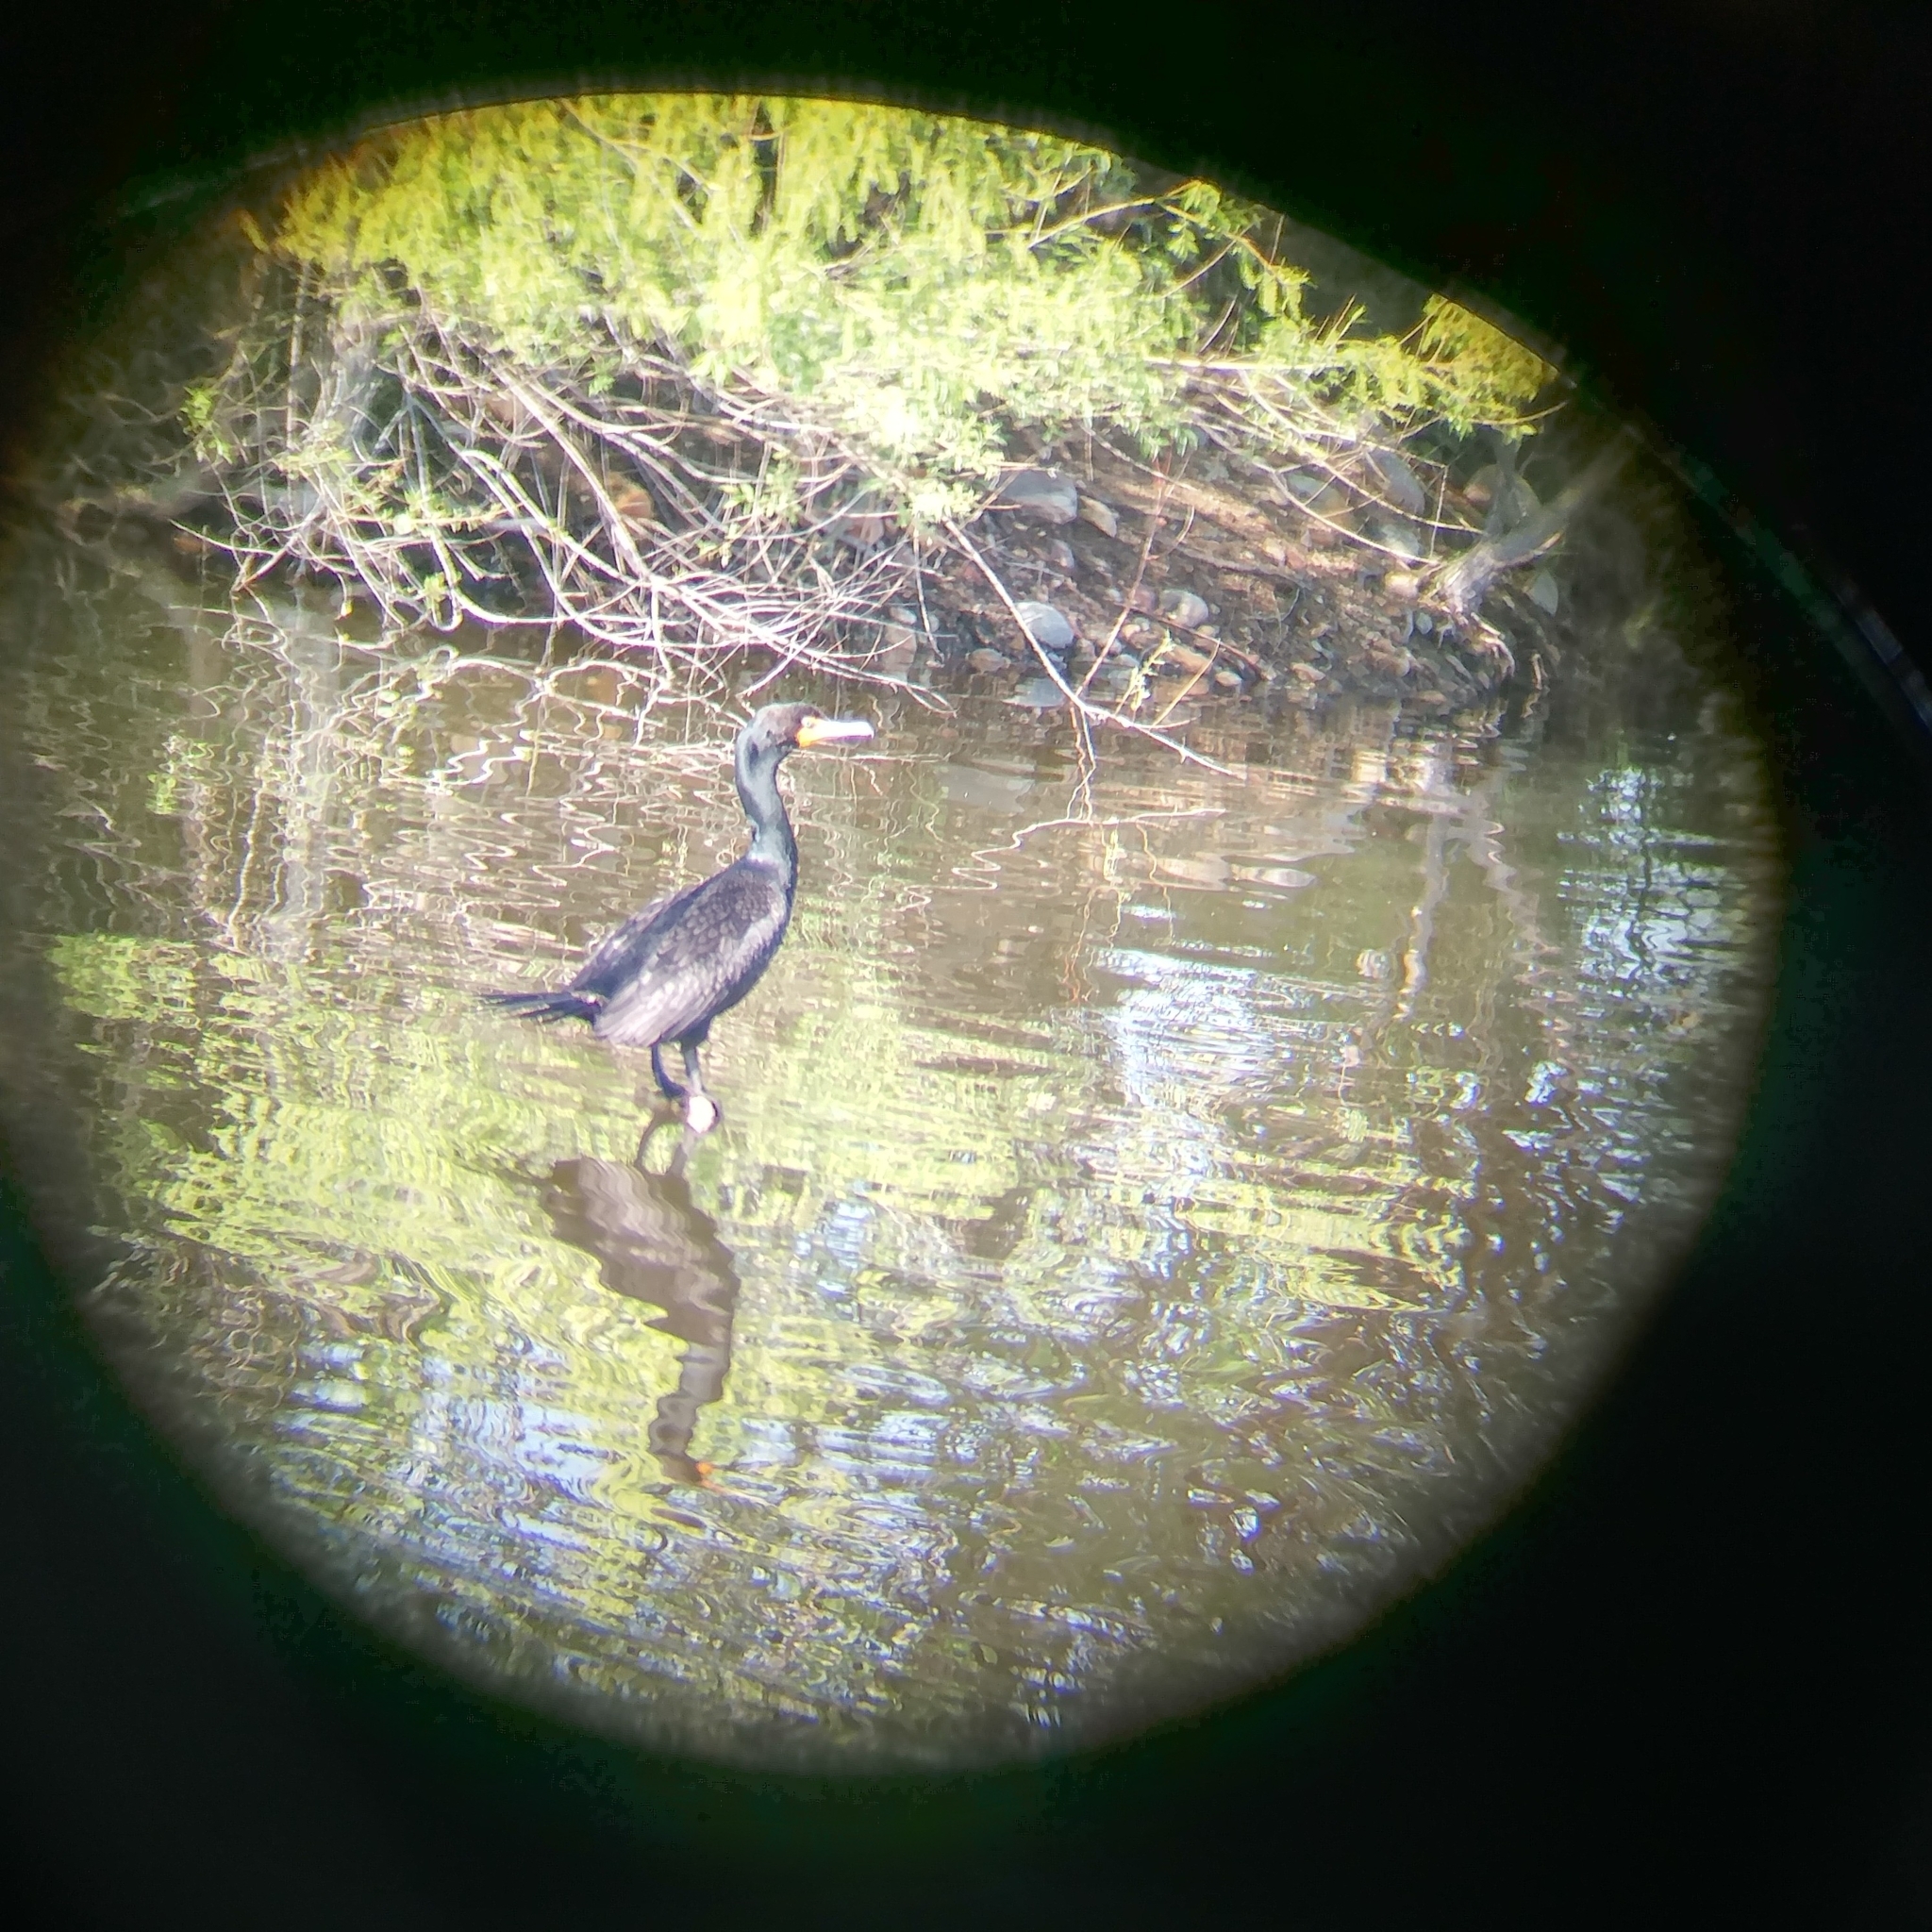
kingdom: Animalia
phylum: Chordata
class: Aves
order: Suliformes
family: Phalacrocoracidae
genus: Phalacrocorax
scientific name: Phalacrocorax auritus
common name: Double-crested cormorant
